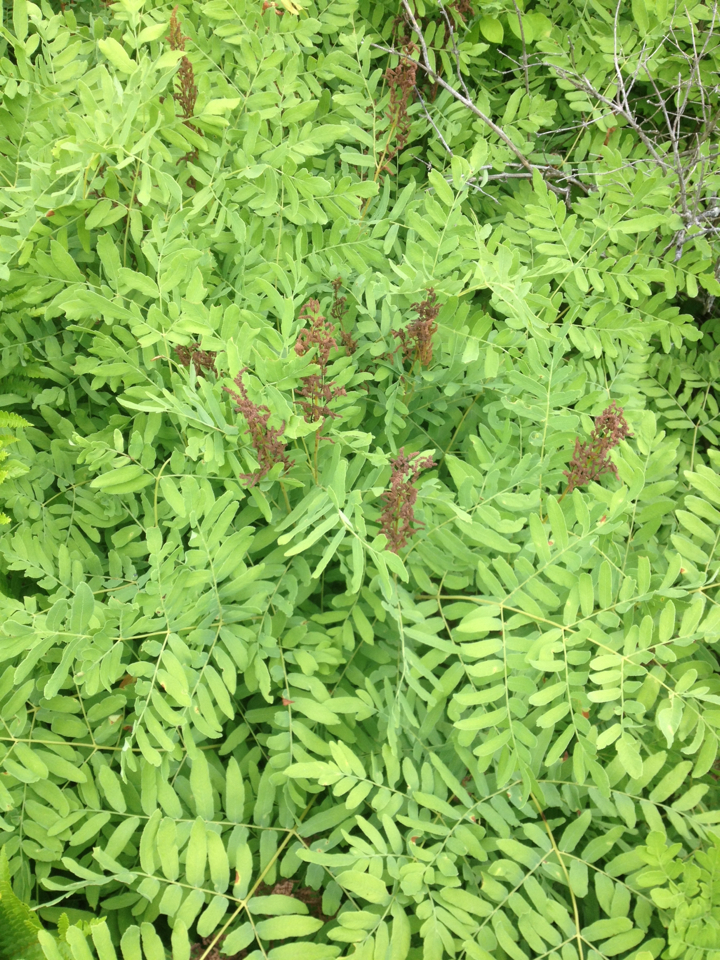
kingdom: Plantae
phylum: Tracheophyta
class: Polypodiopsida
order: Osmundales
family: Osmundaceae
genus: Osmunda
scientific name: Osmunda spectabilis
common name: American royal fern
